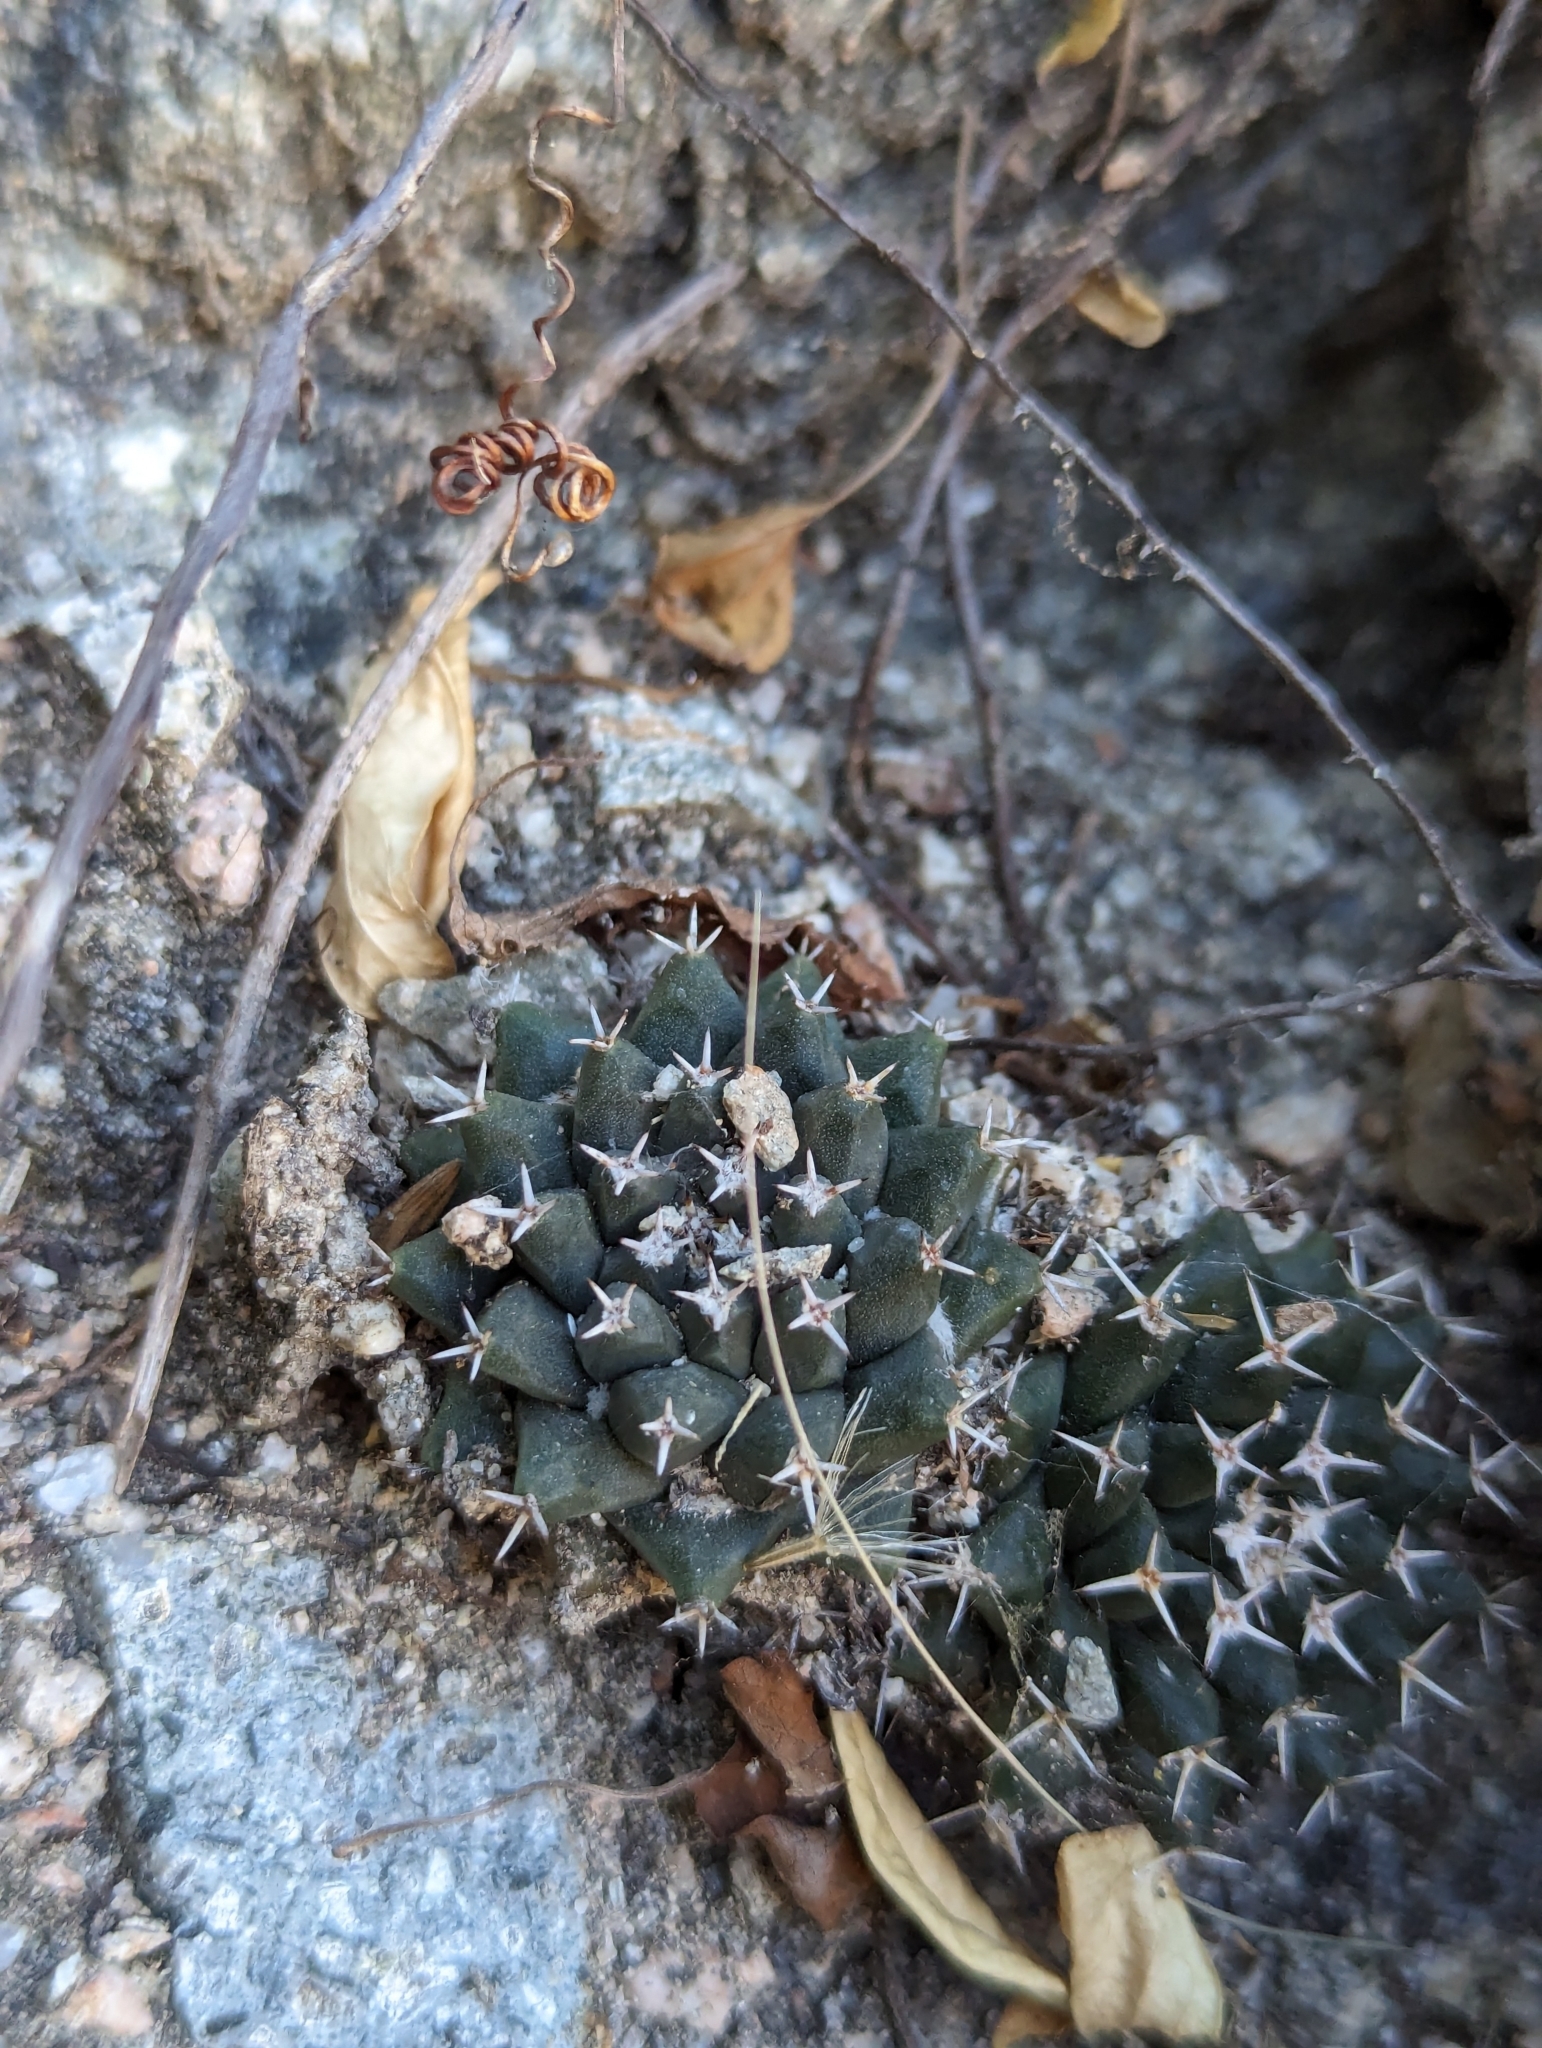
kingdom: Plantae
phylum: Tracheophyta
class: Magnoliopsida
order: Caryophyllales
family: Cactaceae
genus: Mammillaria
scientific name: Mammillaria peninsularis
